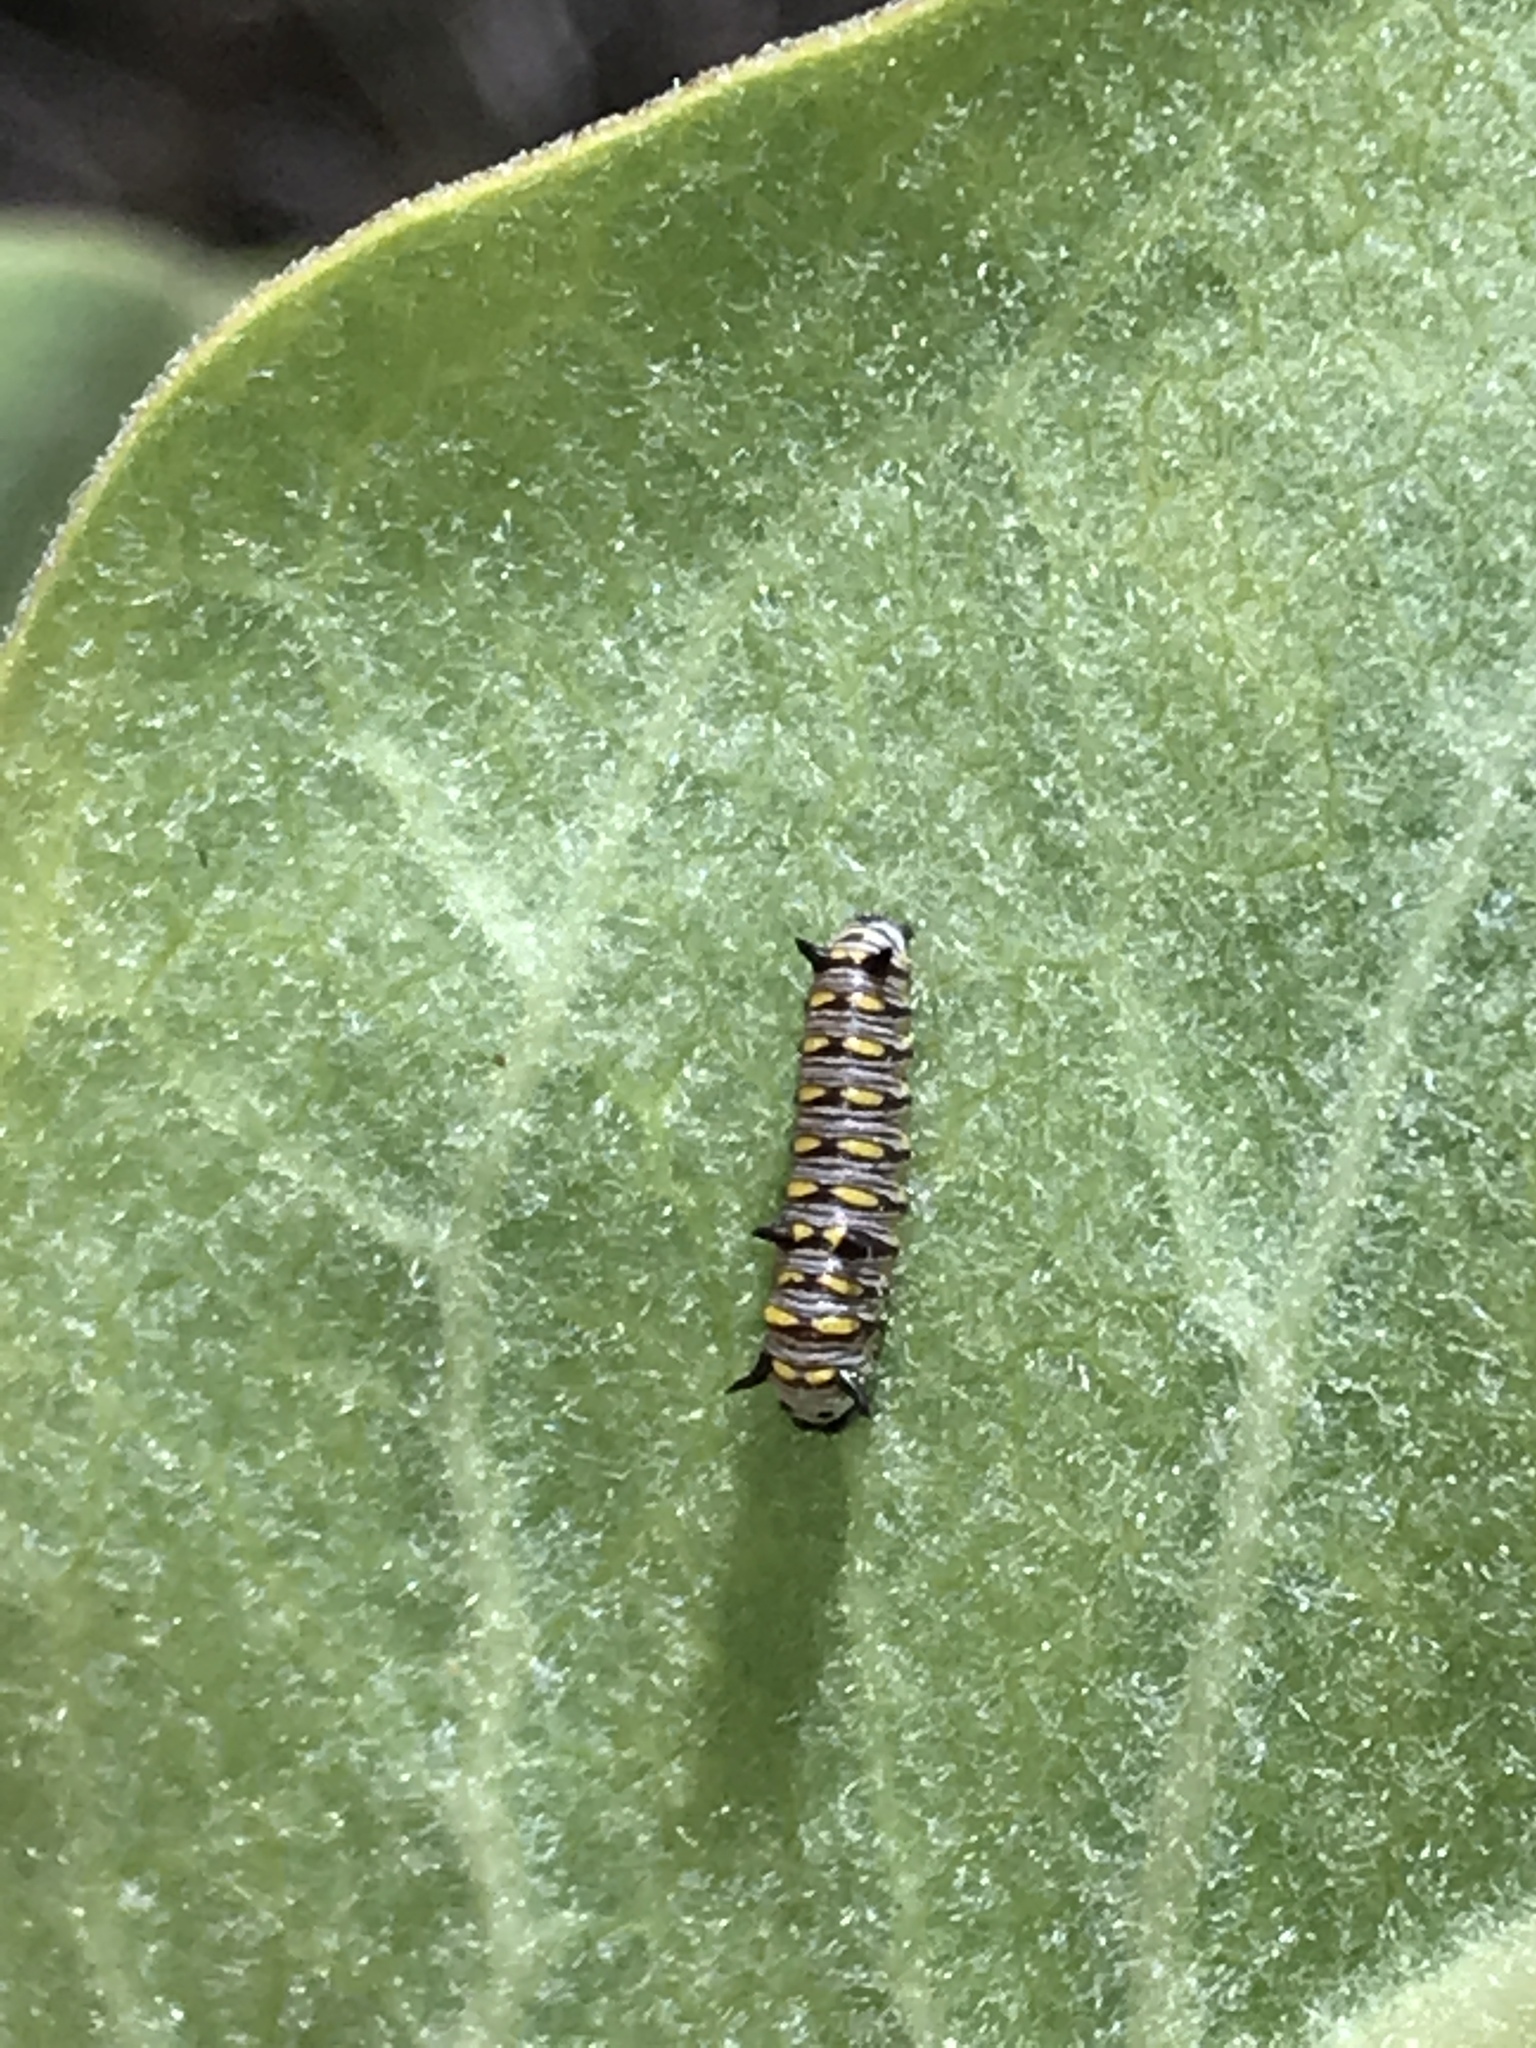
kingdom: Animalia
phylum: Arthropoda
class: Insecta
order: Lepidoptera
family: Nymphalidae
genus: Danaus
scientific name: Danaus gilippus
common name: Queen
